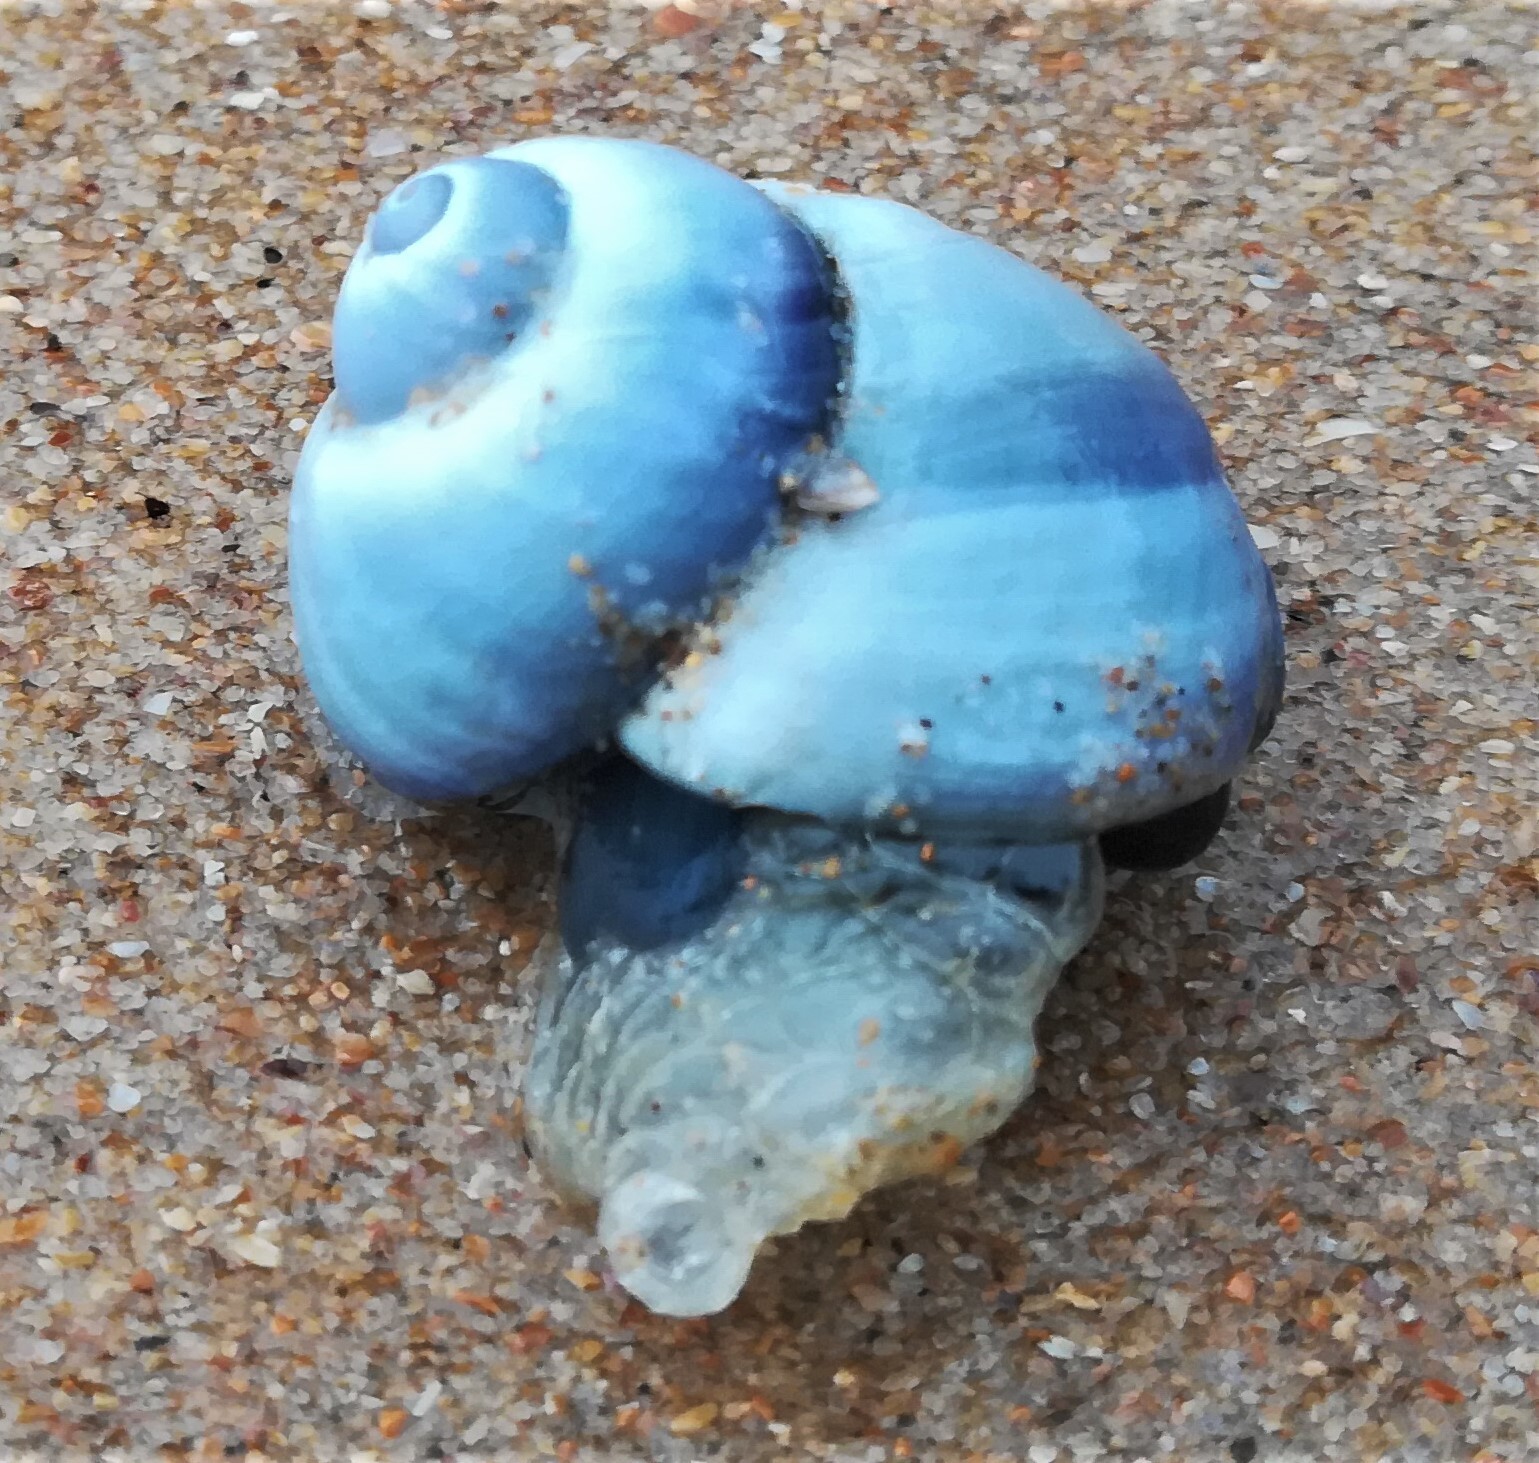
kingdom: Animalia
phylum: Mollusca
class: Gastropoda
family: Epitoniidae
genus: Janthina
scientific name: Janthina janthina
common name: Common janthina
